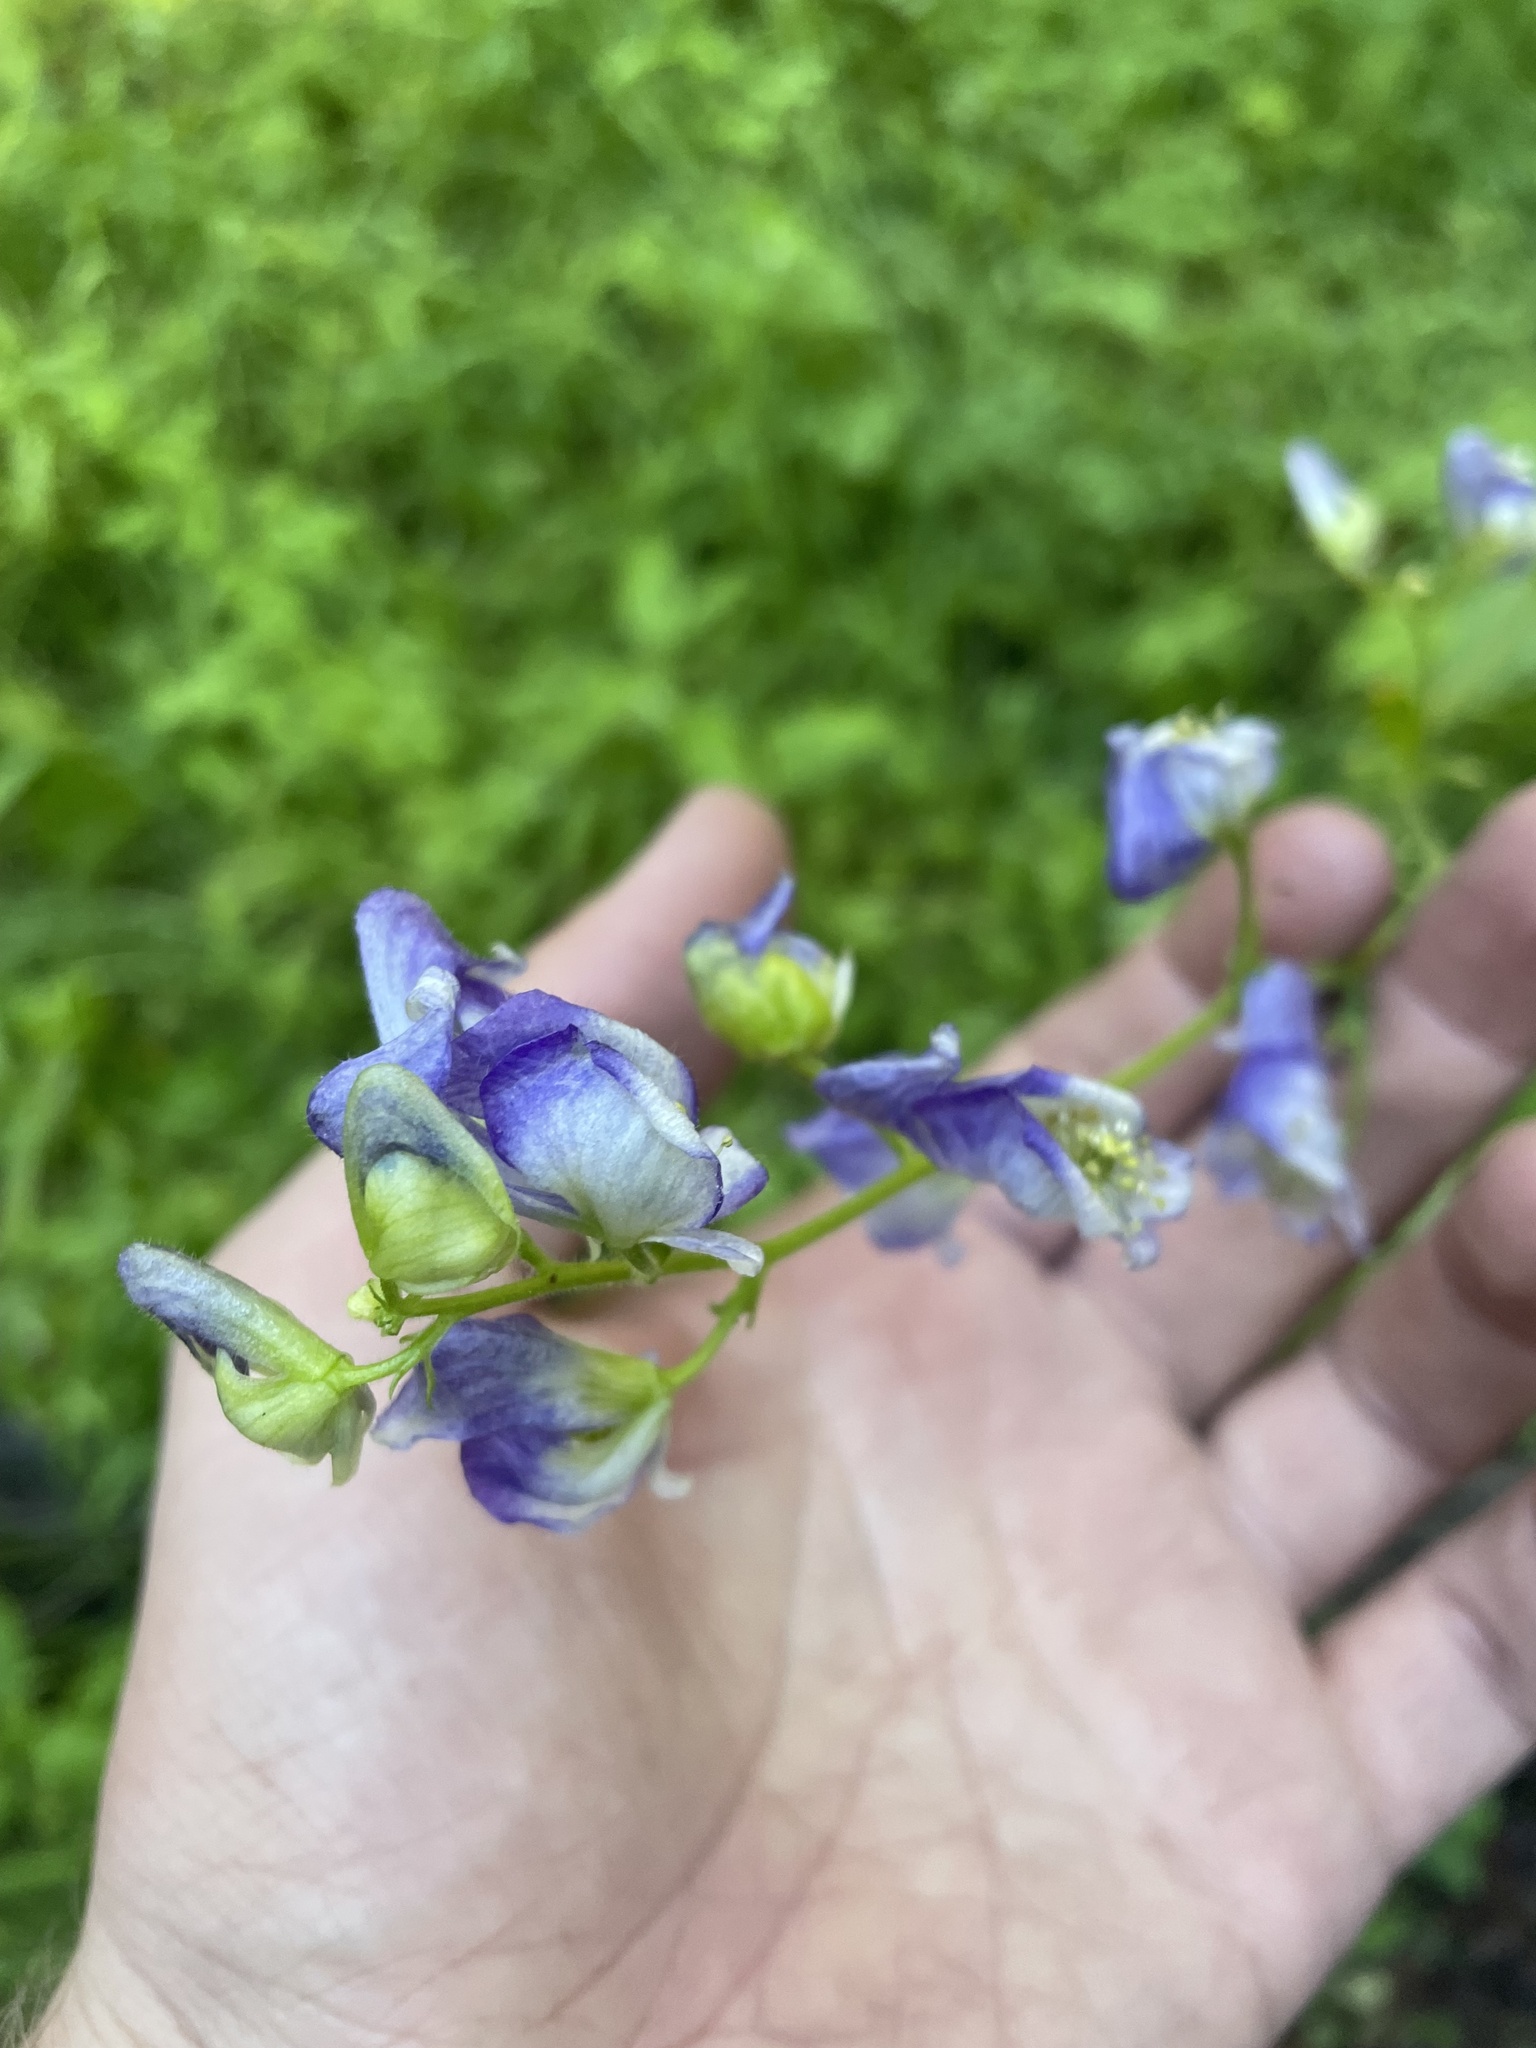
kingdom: Plantae
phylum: Tracheophyta
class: Magnoliopsida
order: Ranunculales
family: Ranunculaceae
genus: Aconitum
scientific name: Aconitum columbianum
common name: Columbia aconite
